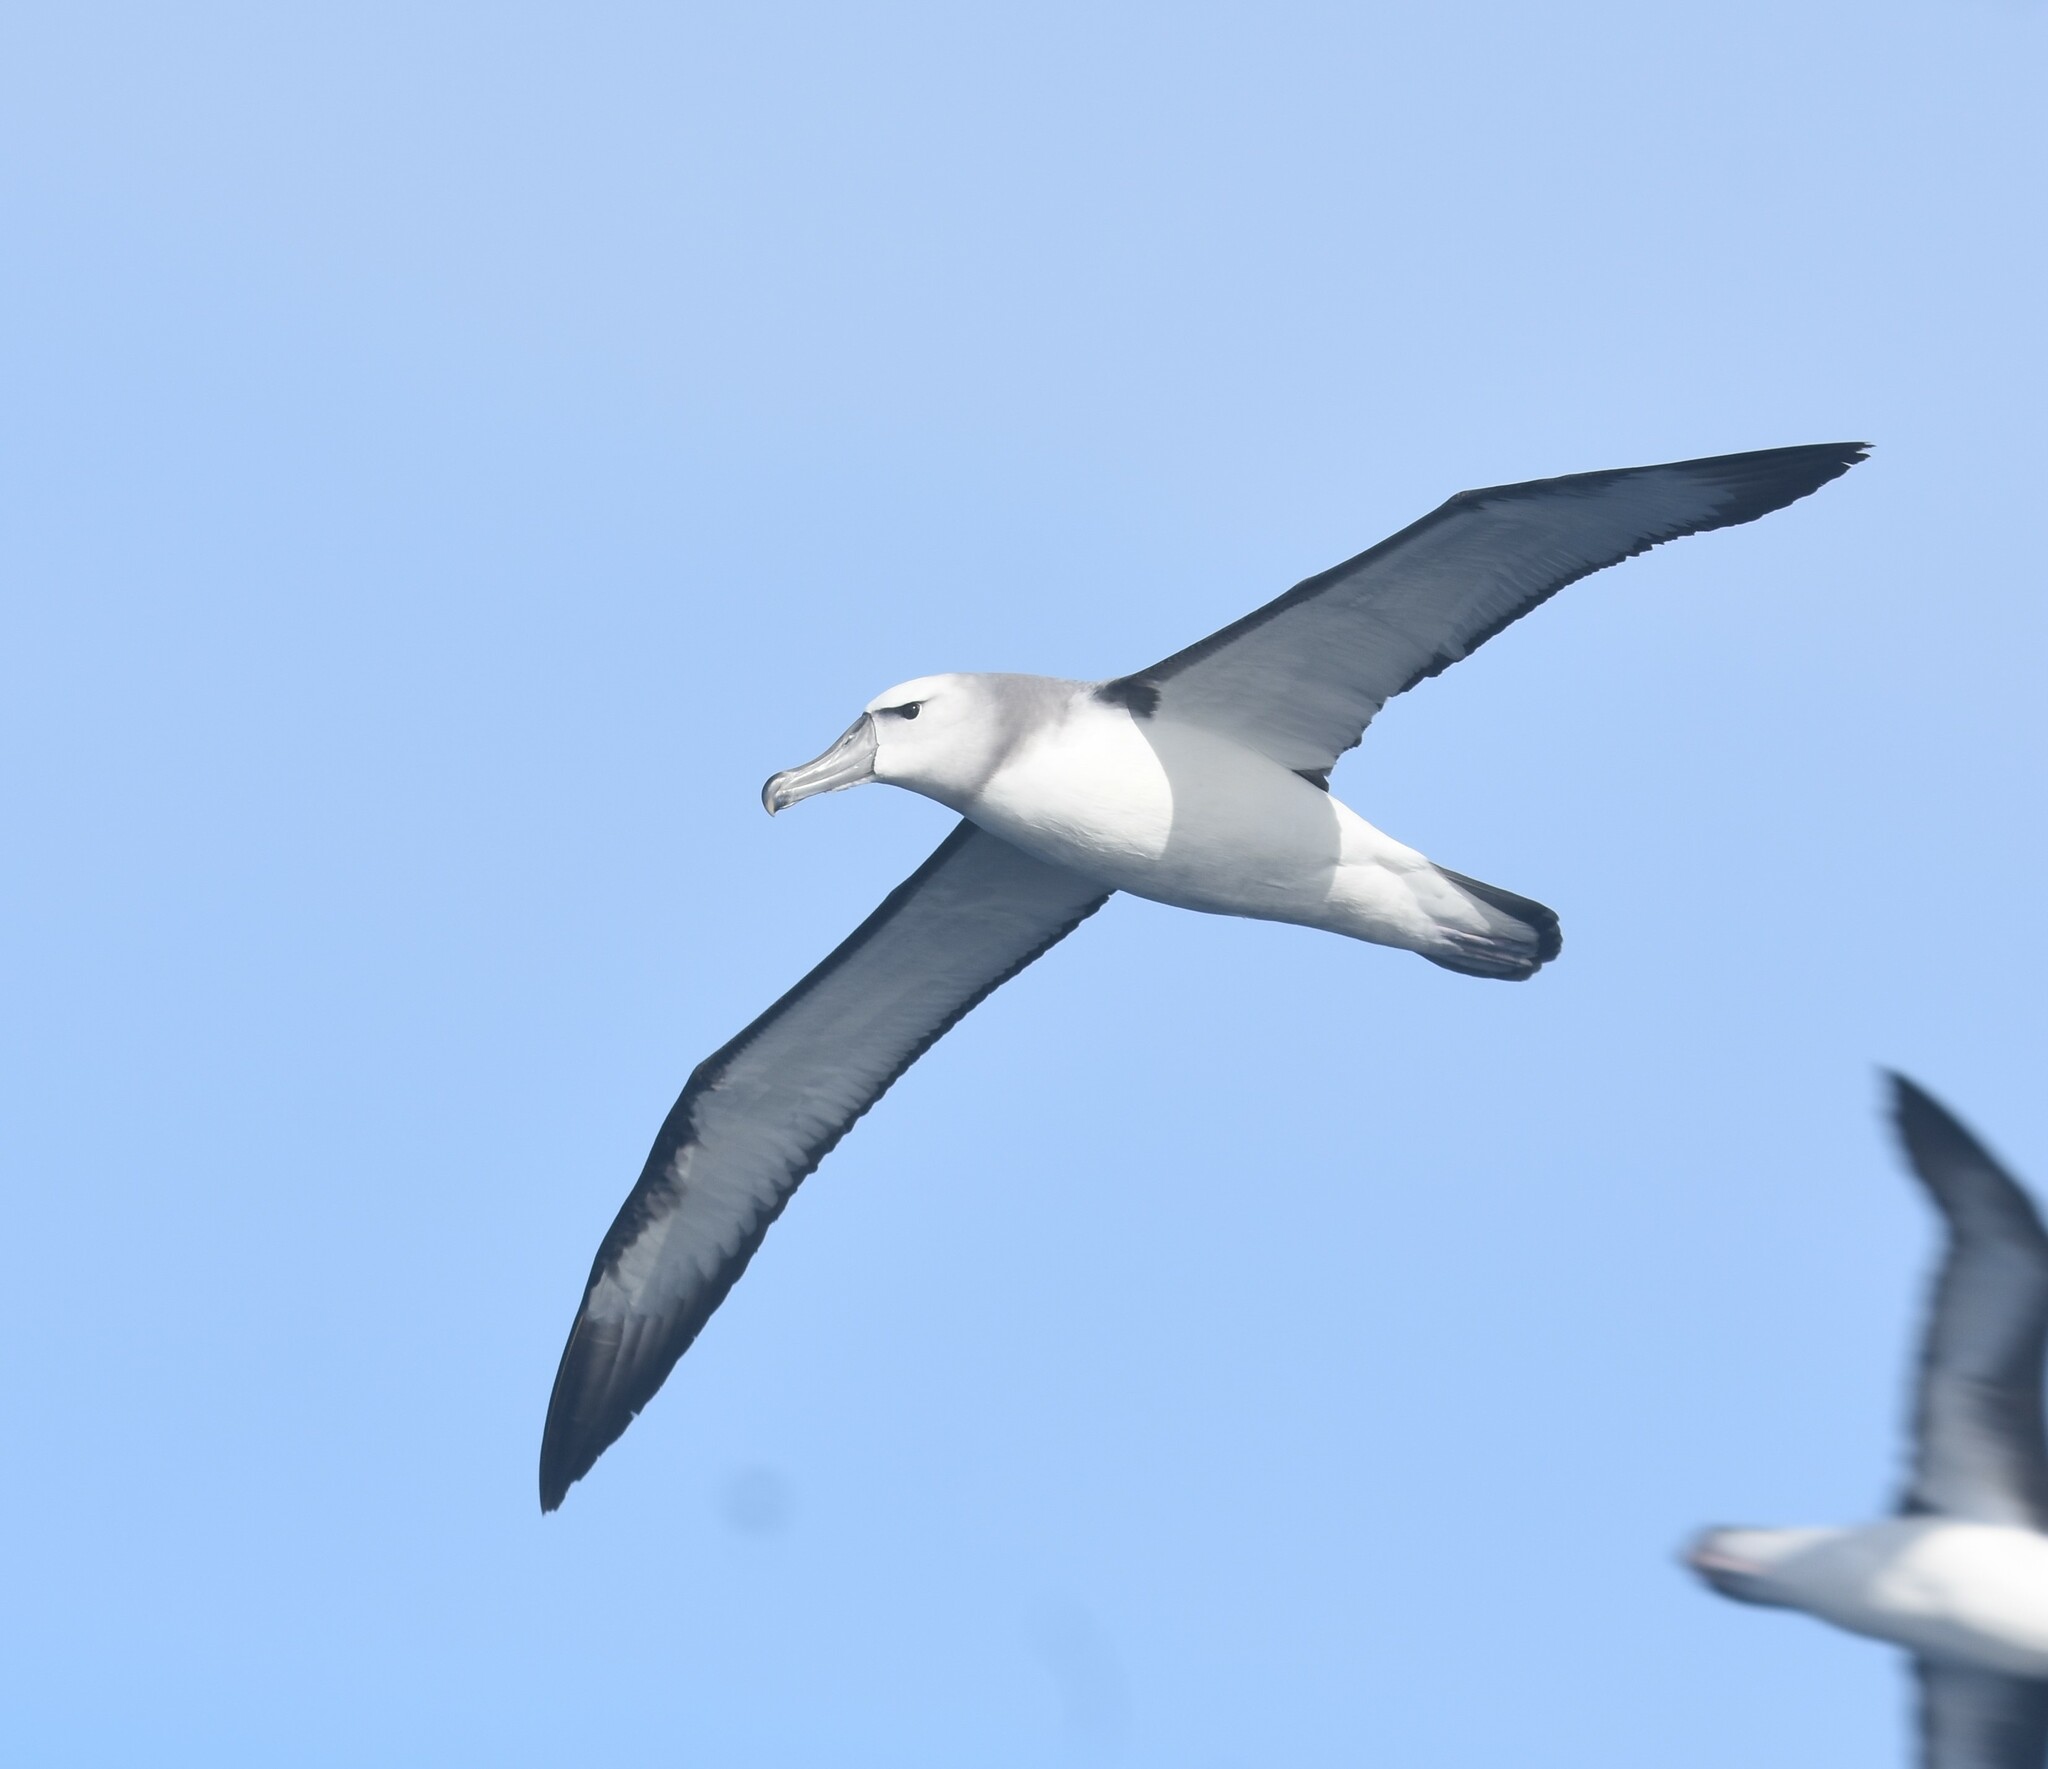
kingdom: Animalia
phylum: Chordata
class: Aves
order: Procellariiformes
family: Diomedeidae
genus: Thalassarche
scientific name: Thalassarche cauta
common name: Shy albatross
